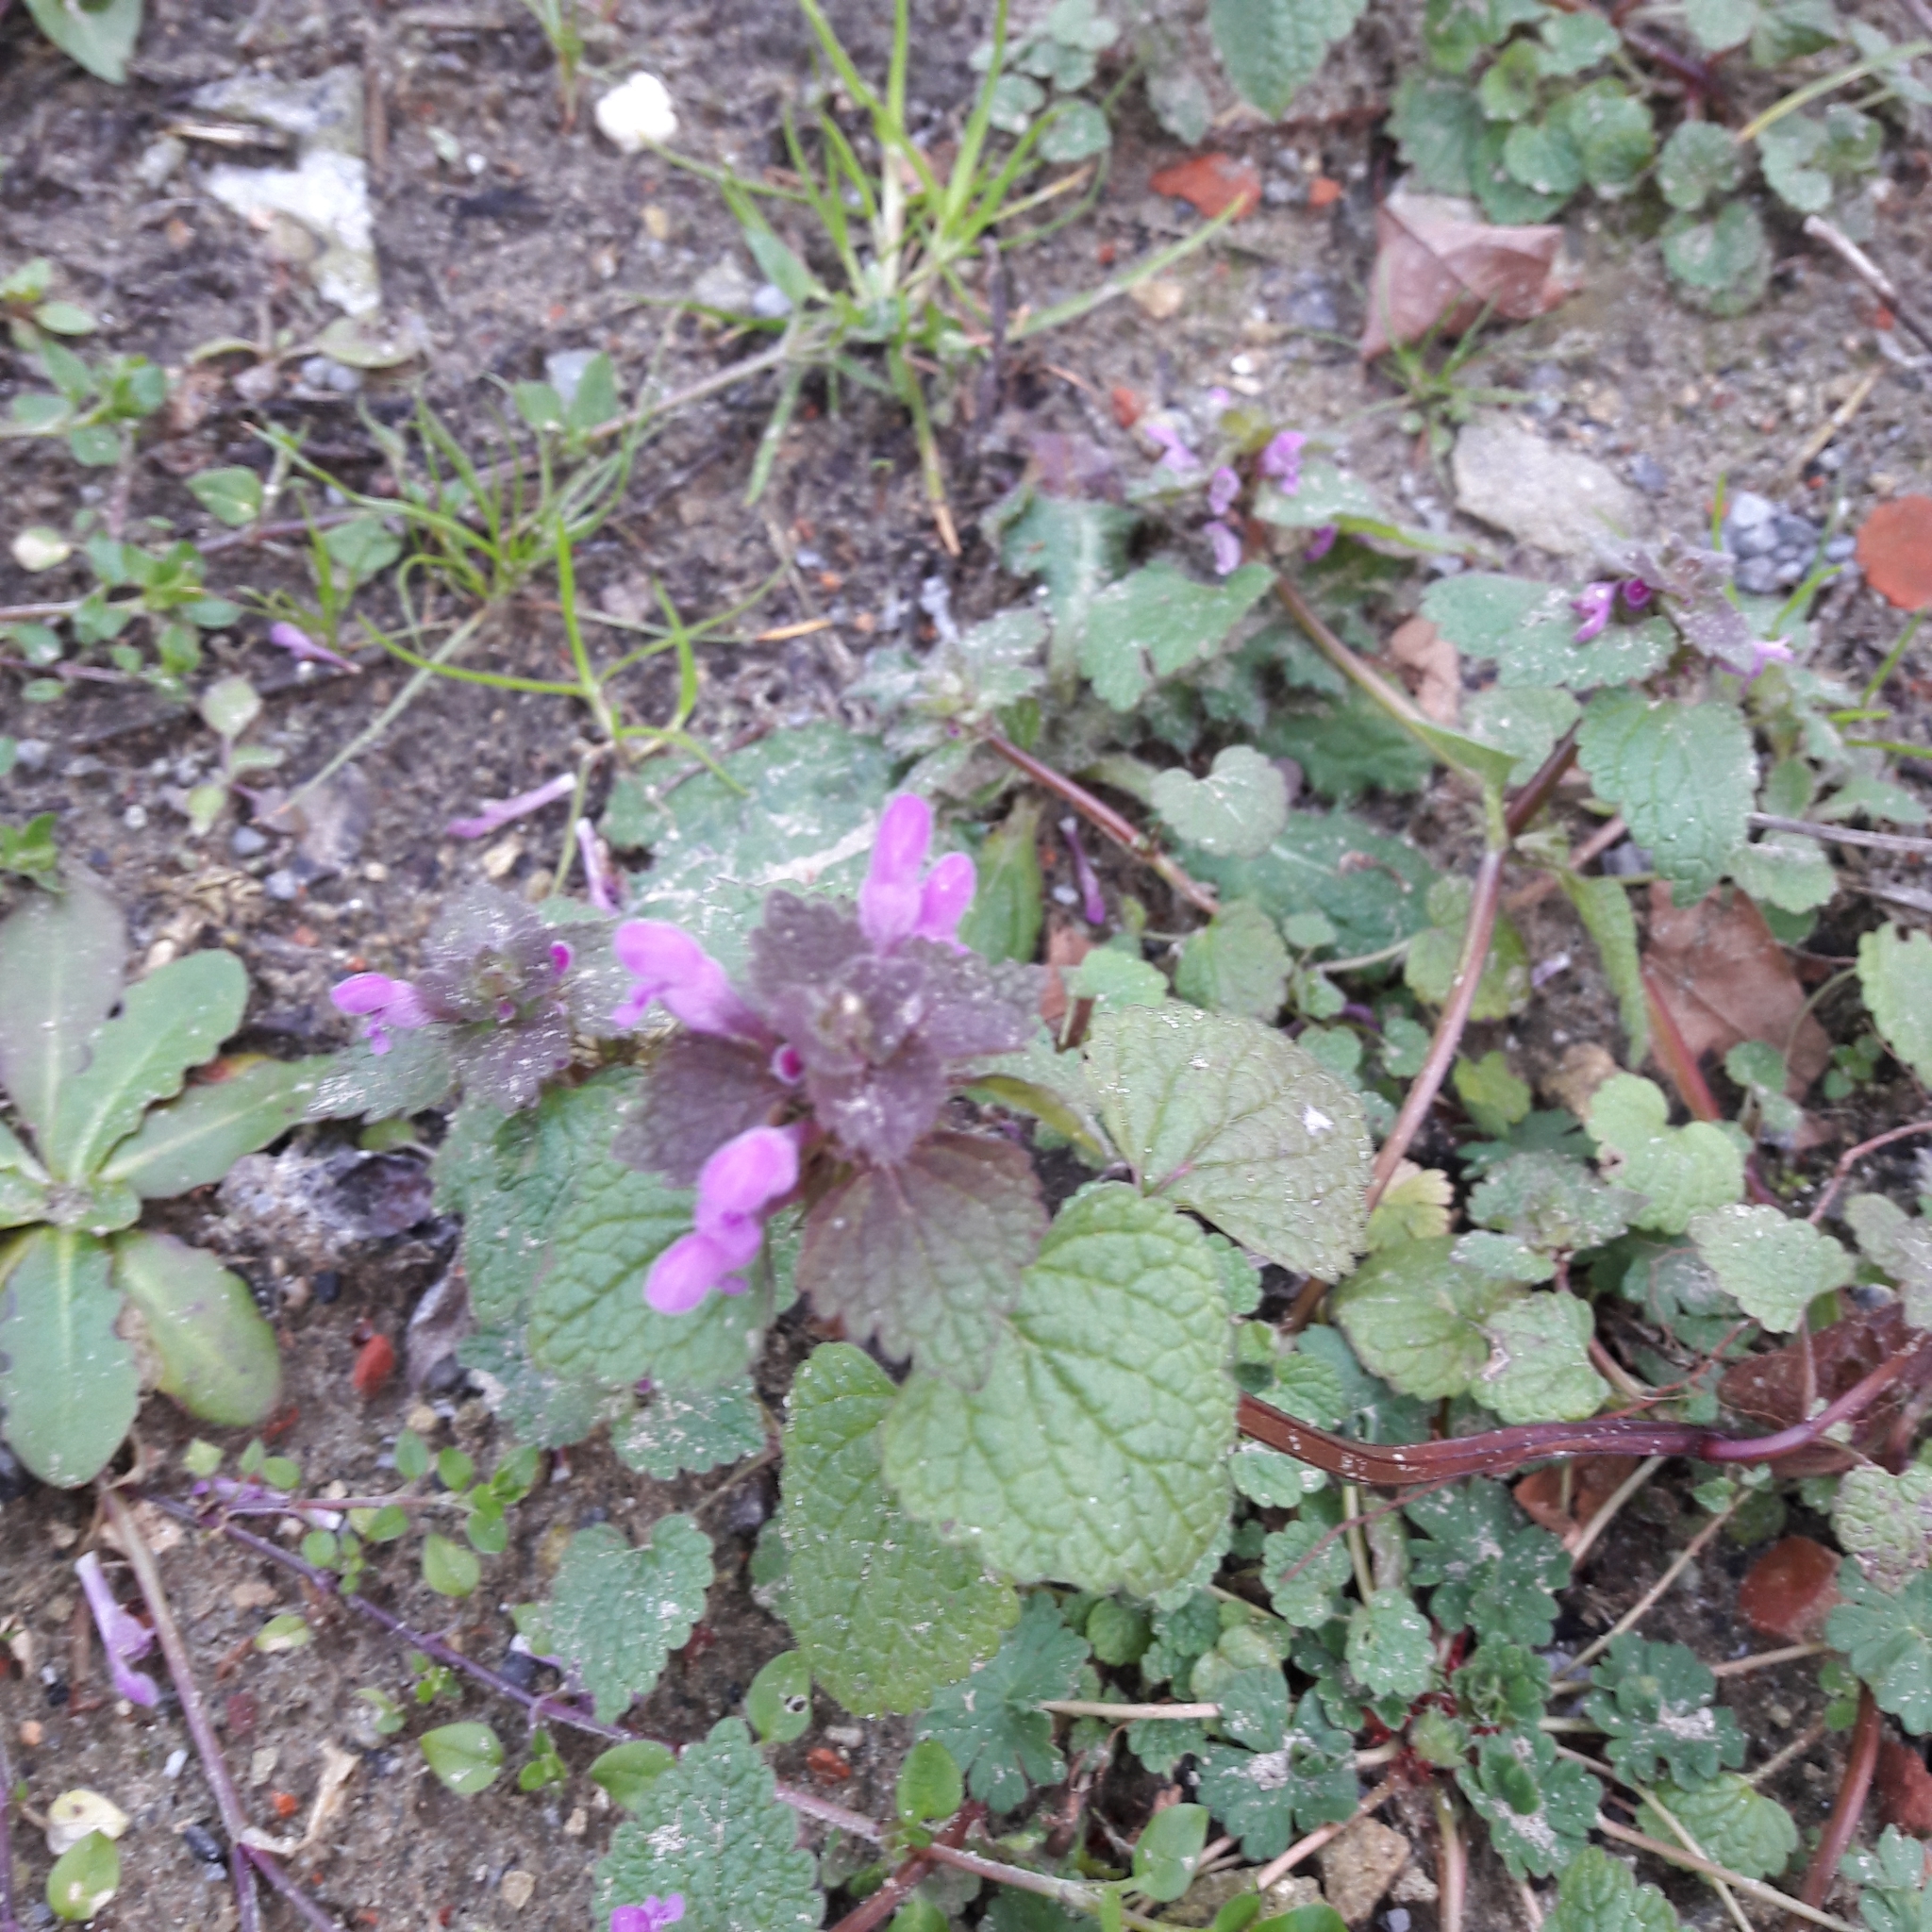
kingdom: Plantae
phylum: Tracheophyta
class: Magnoliopsida
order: Lamiales
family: Lamiaceae
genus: Lamium
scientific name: Lamium purpureum
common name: Red dead-nettle
